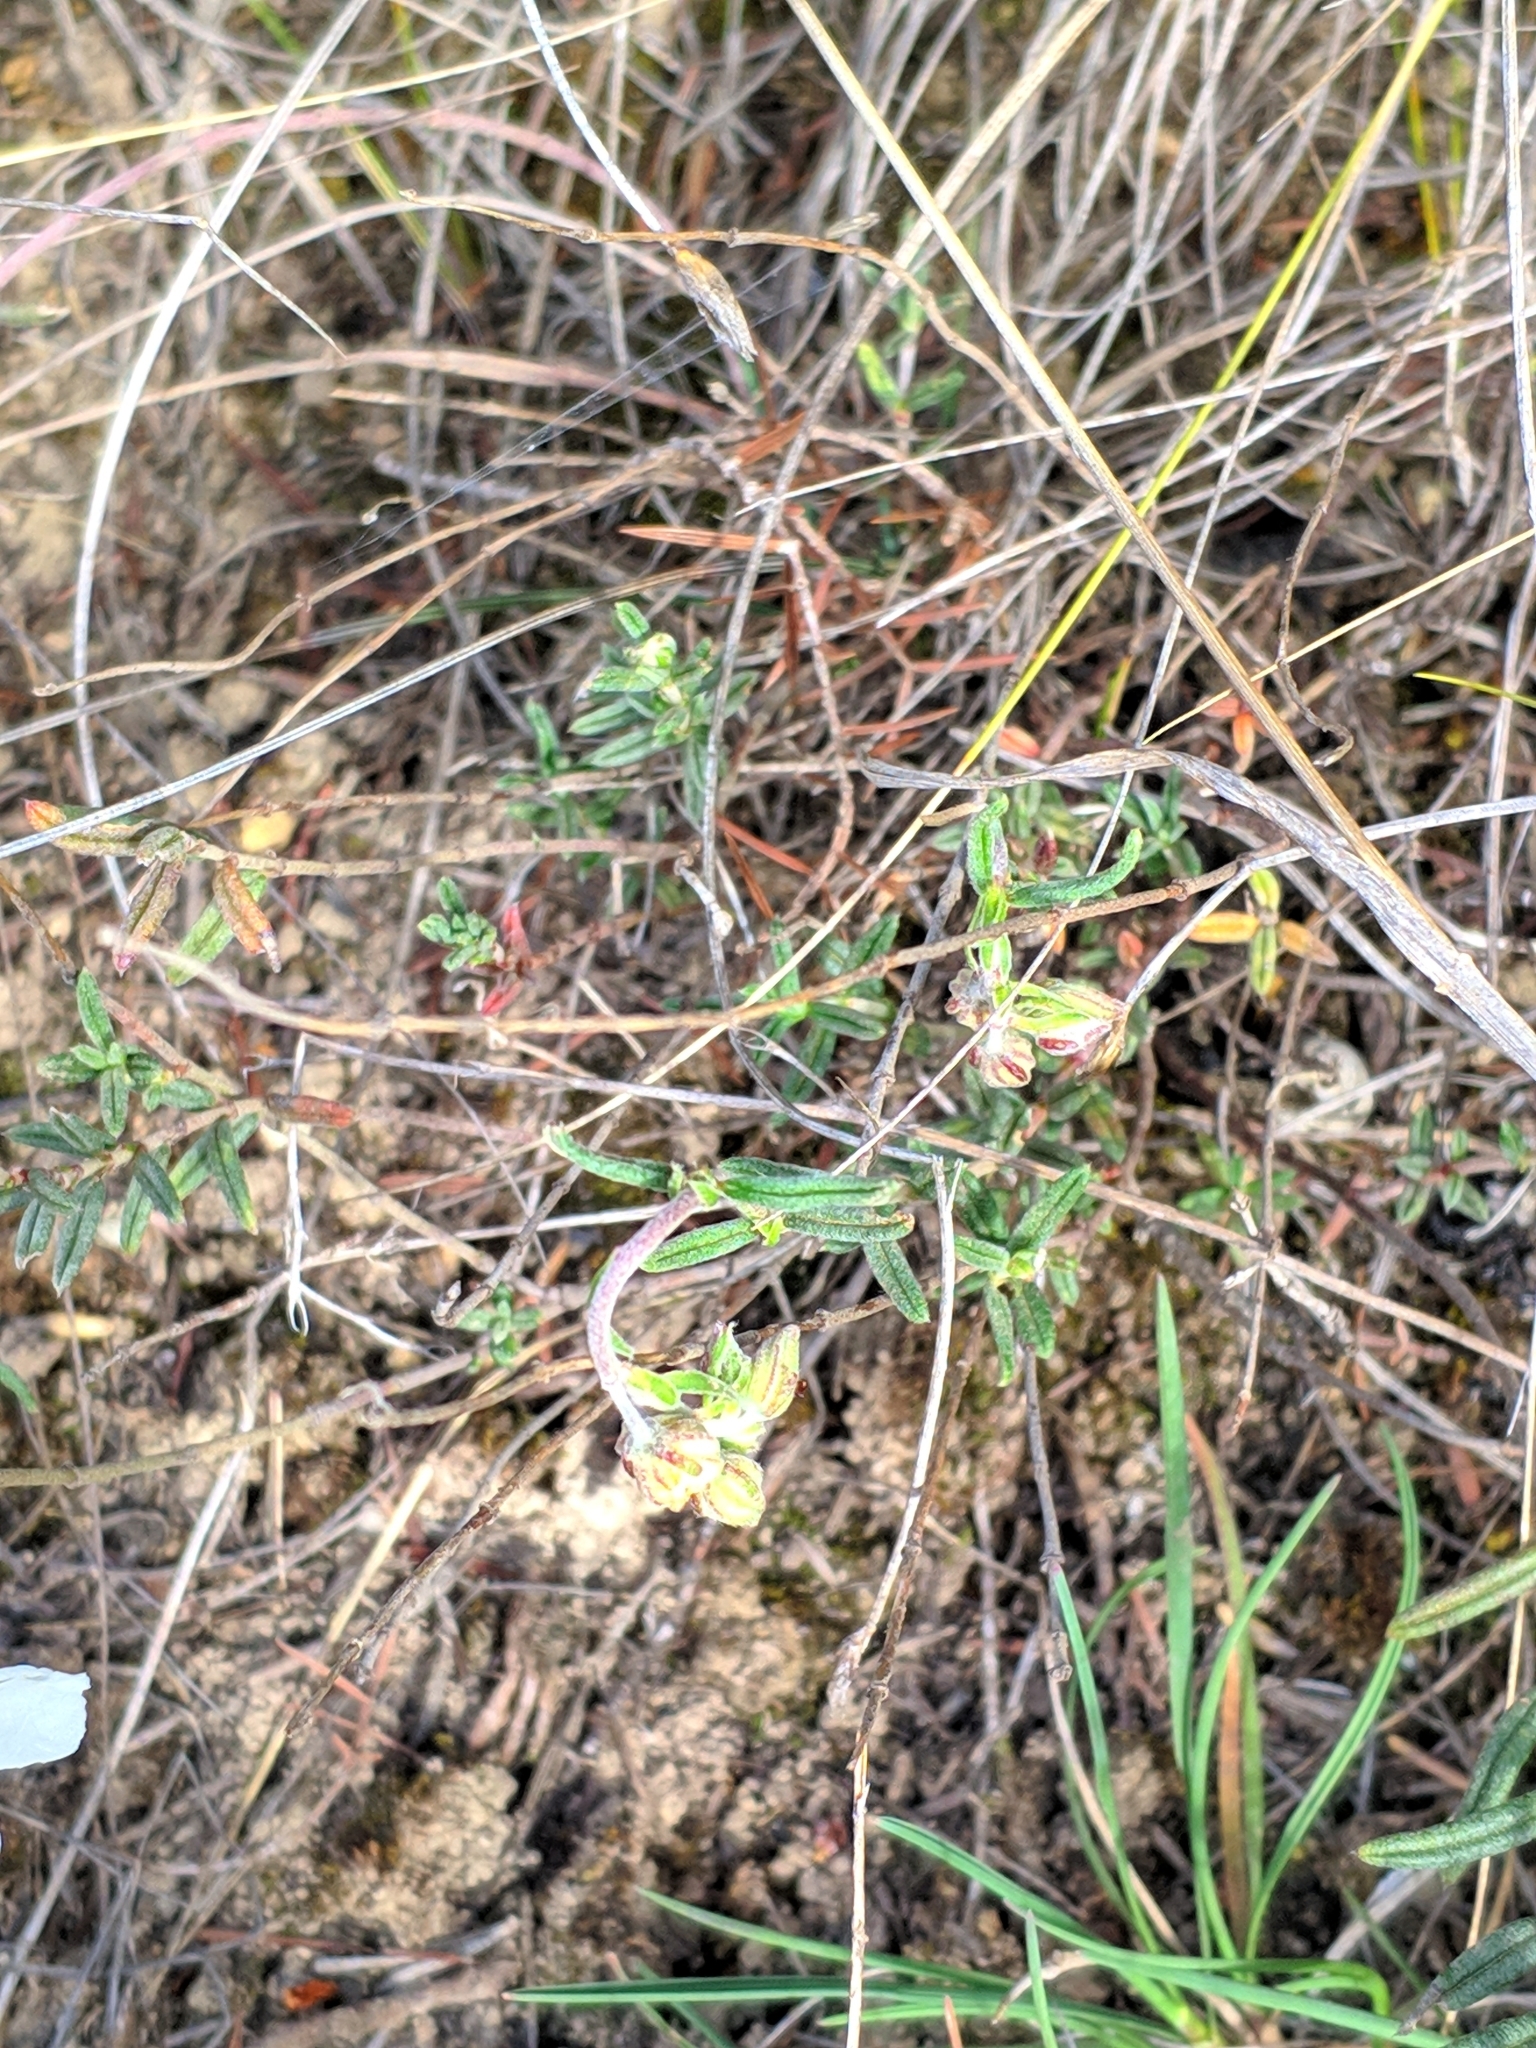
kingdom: Plantae
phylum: Tracheophyta
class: Magnoliopsida
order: Malvales
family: Cistaceae
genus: Helianthemum
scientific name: Helianthemum apenninum
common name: White rock-rose
